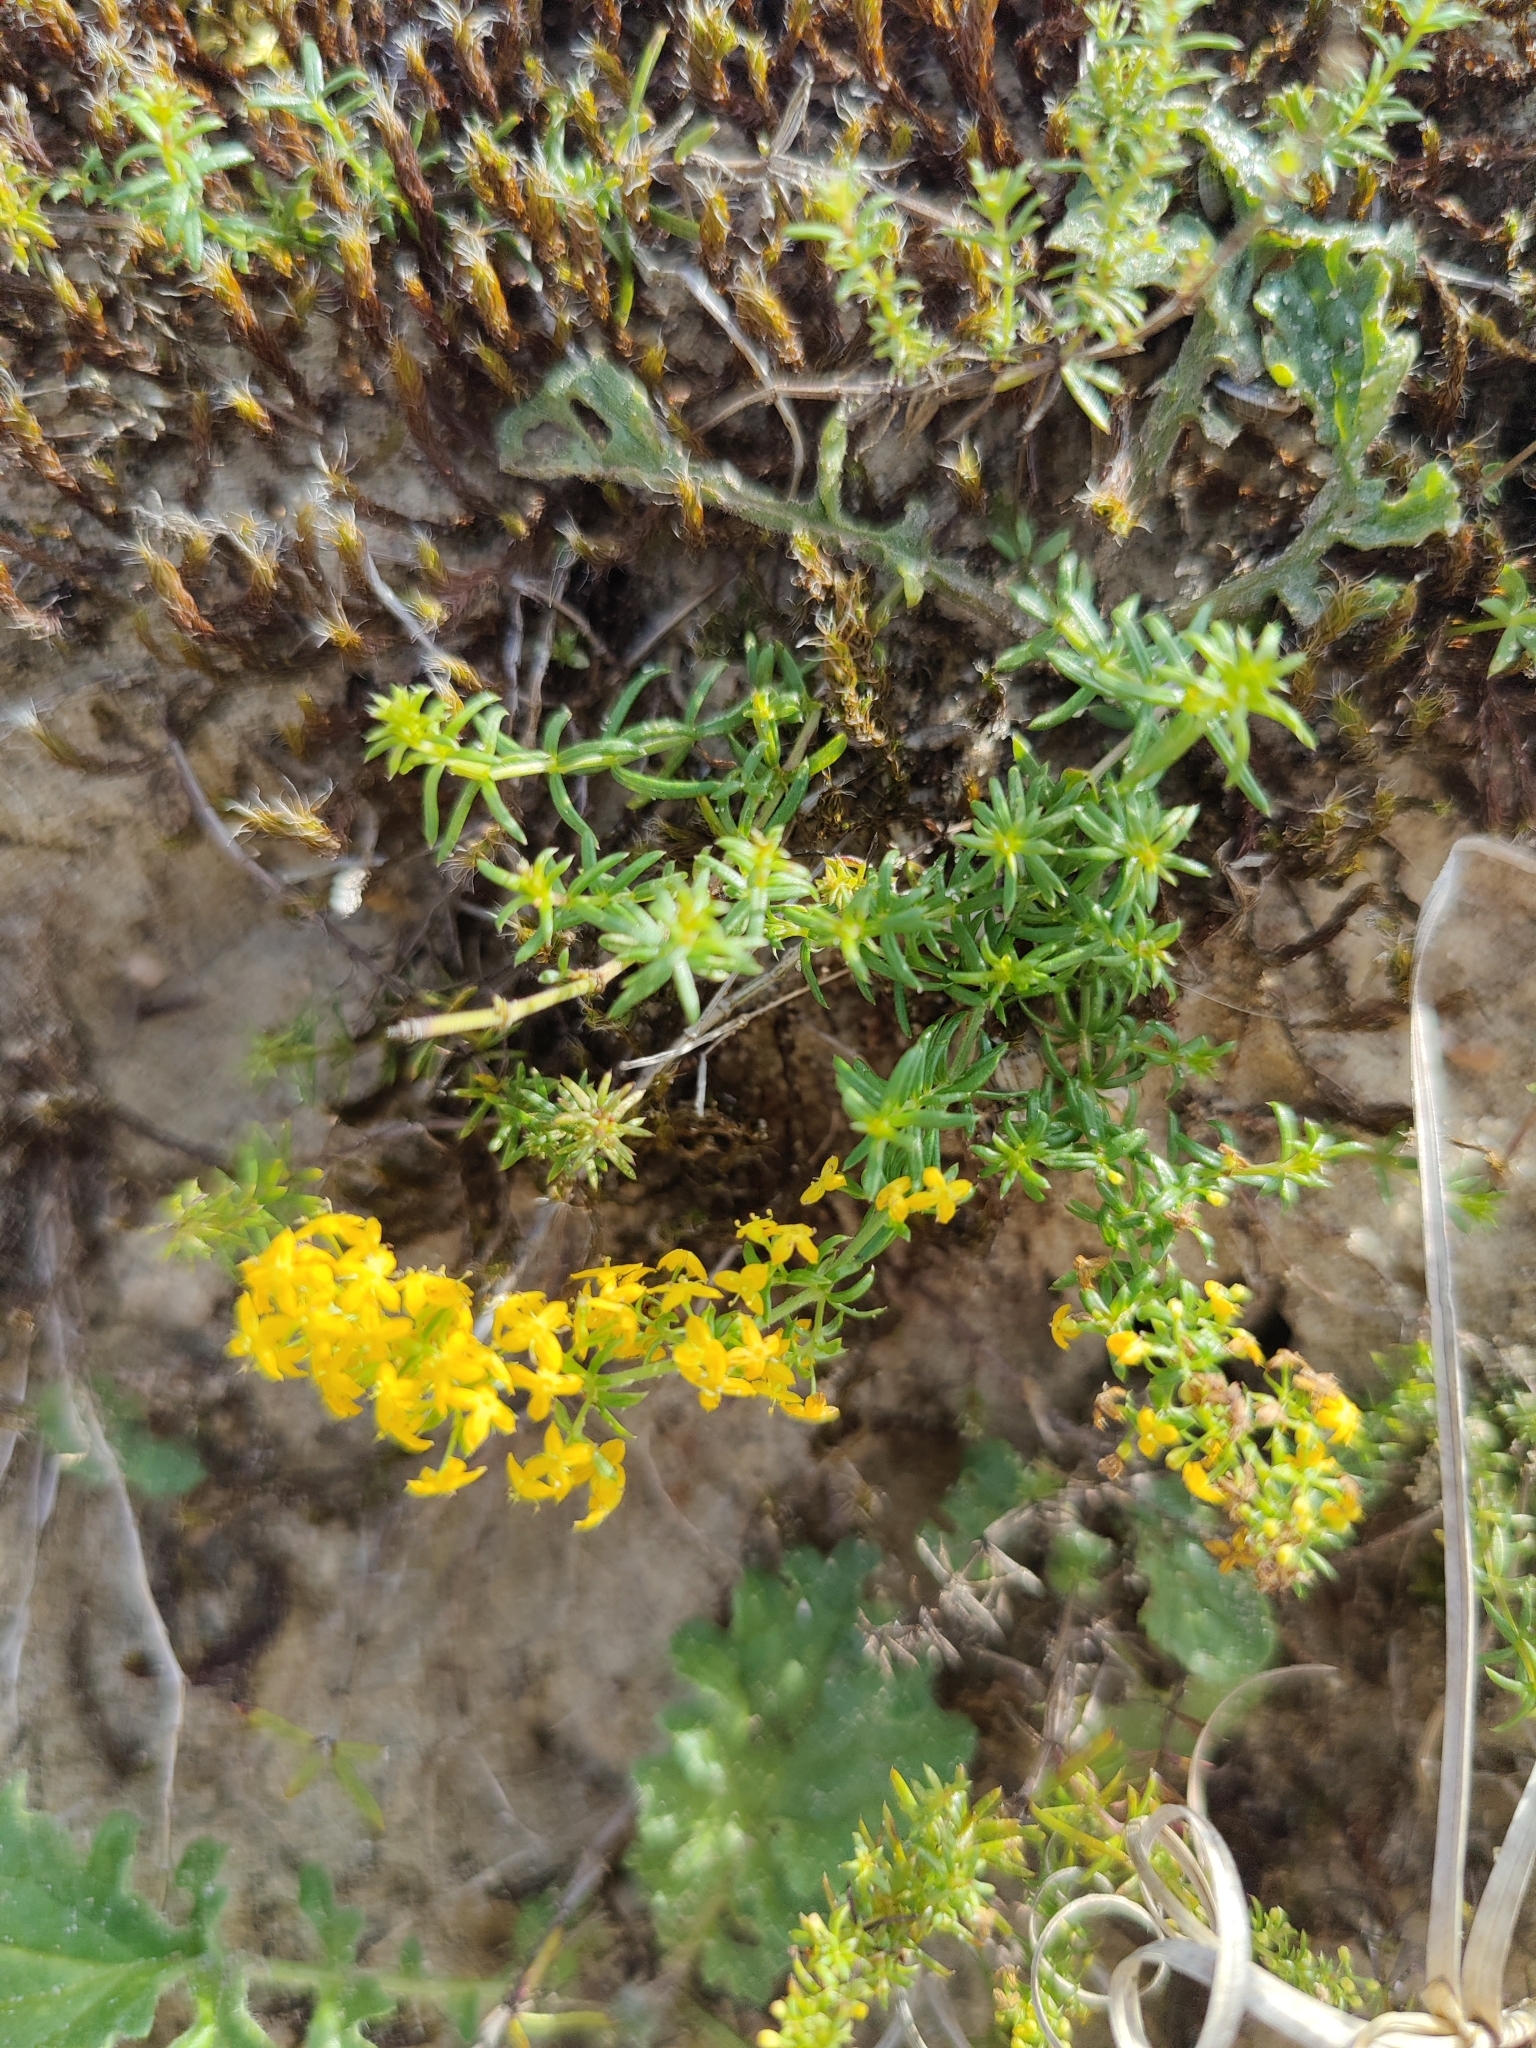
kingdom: Plantae
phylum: Tracheophyta
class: Magnoliopsida
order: Gentianales
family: Rubiaceae
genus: Galium
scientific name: Galium verum
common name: Lady's bedstraw
